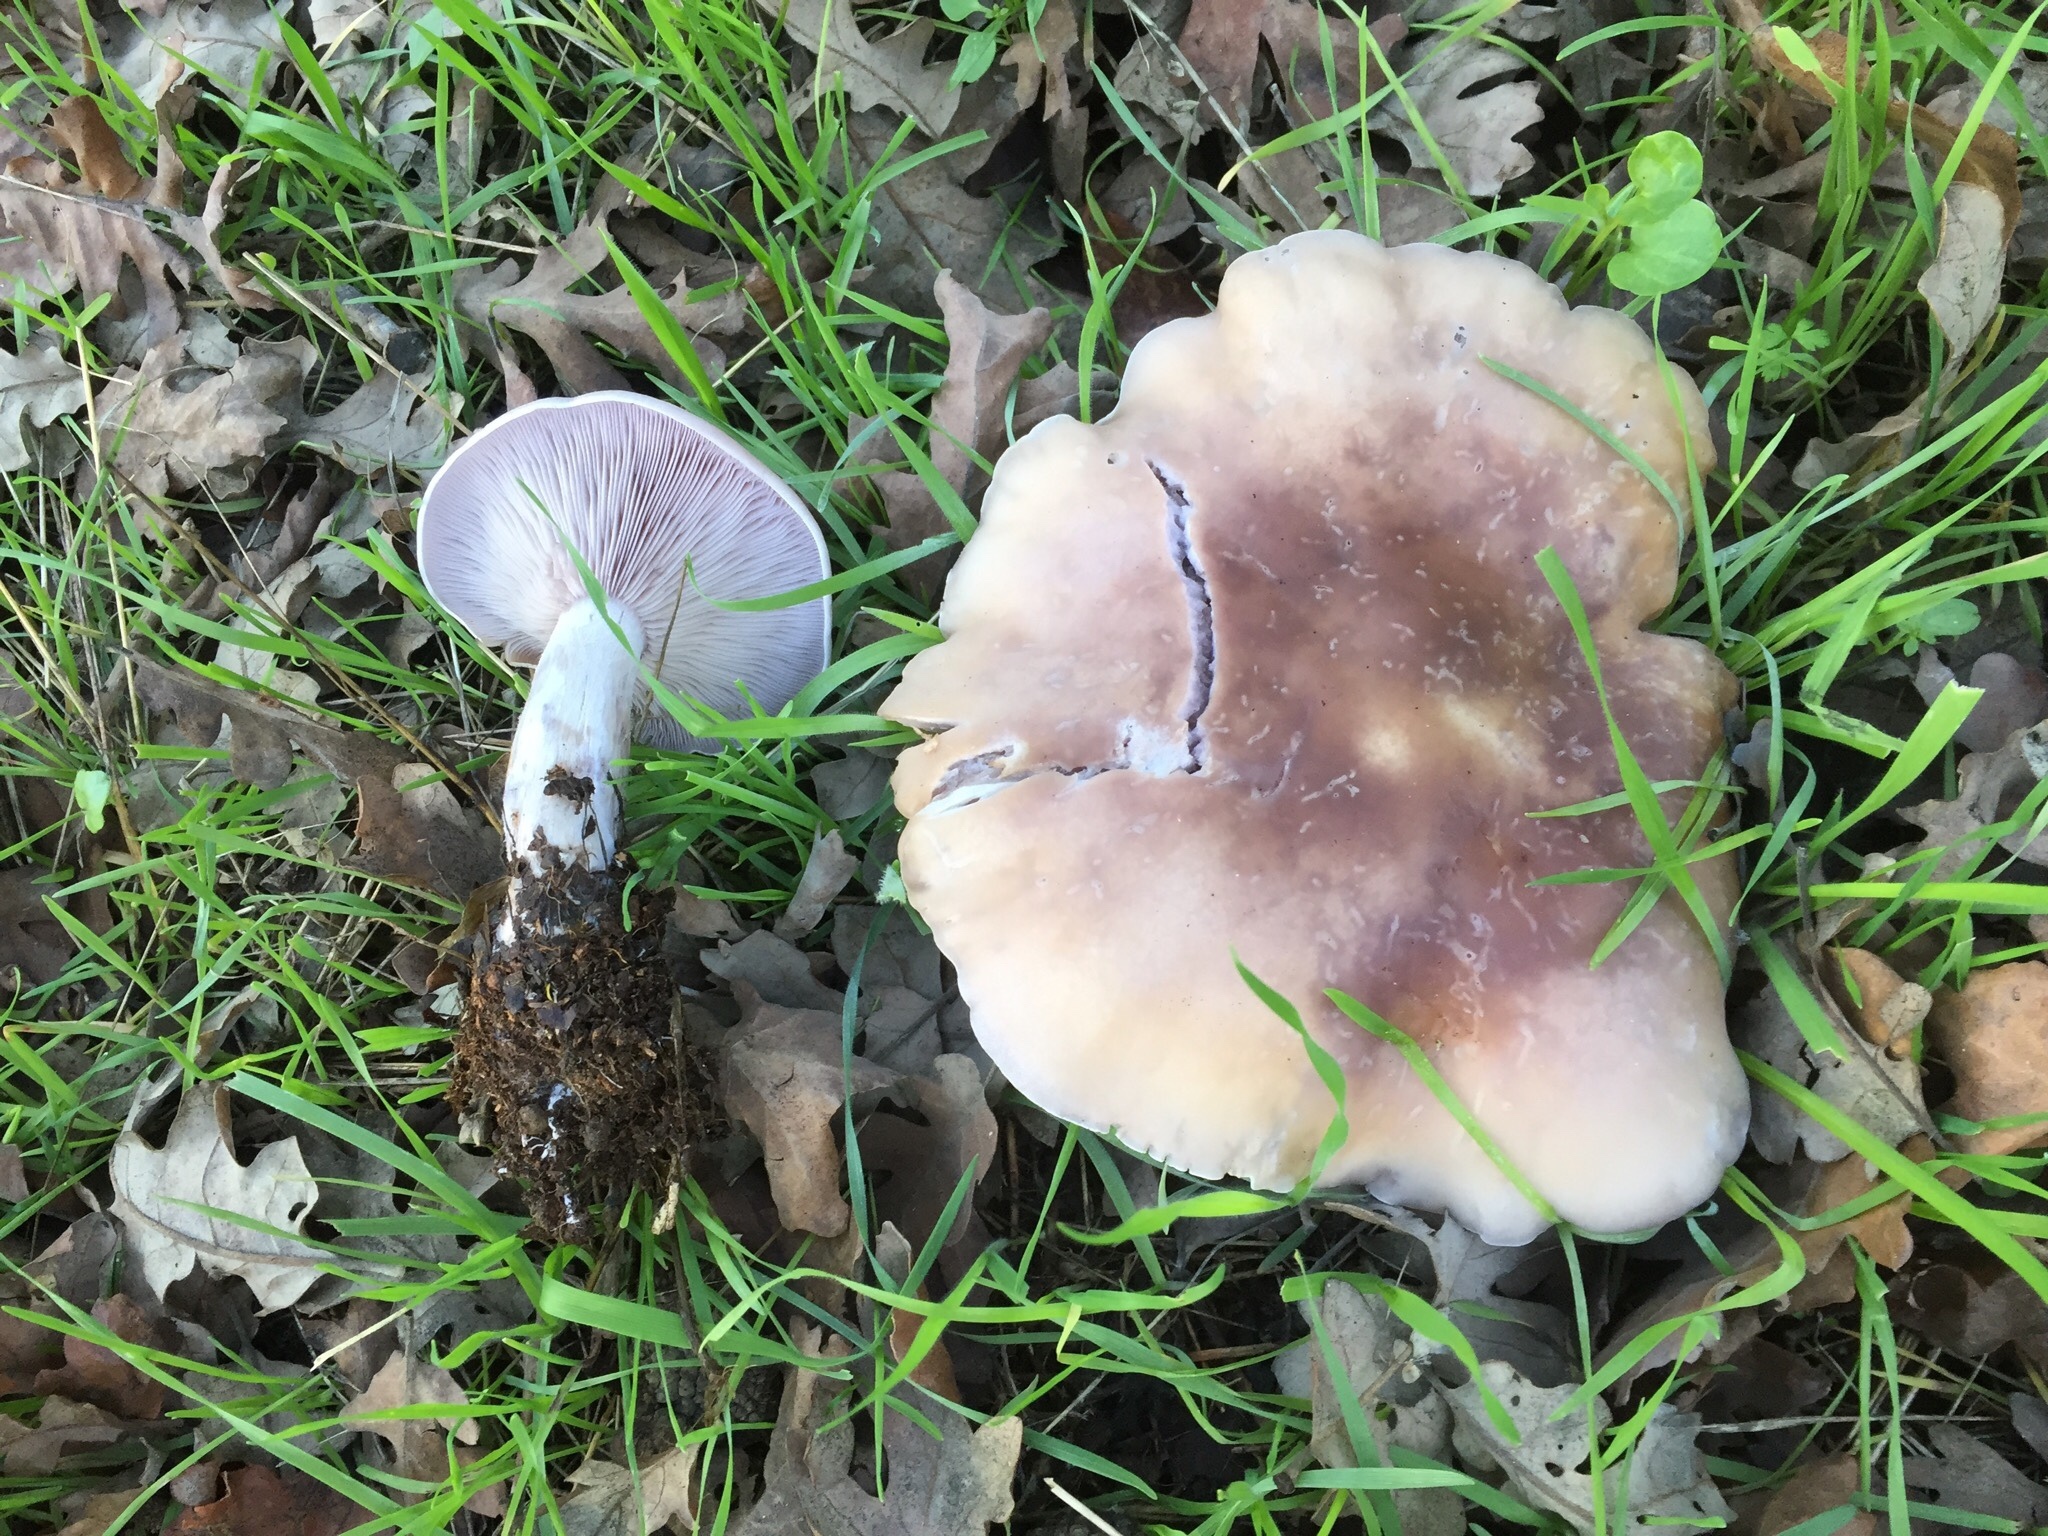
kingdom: Fungi
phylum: Basidiomycota
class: Agaricomycetes
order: Agaricales
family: Tricholomataceae
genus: Collybia
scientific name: Collybia
